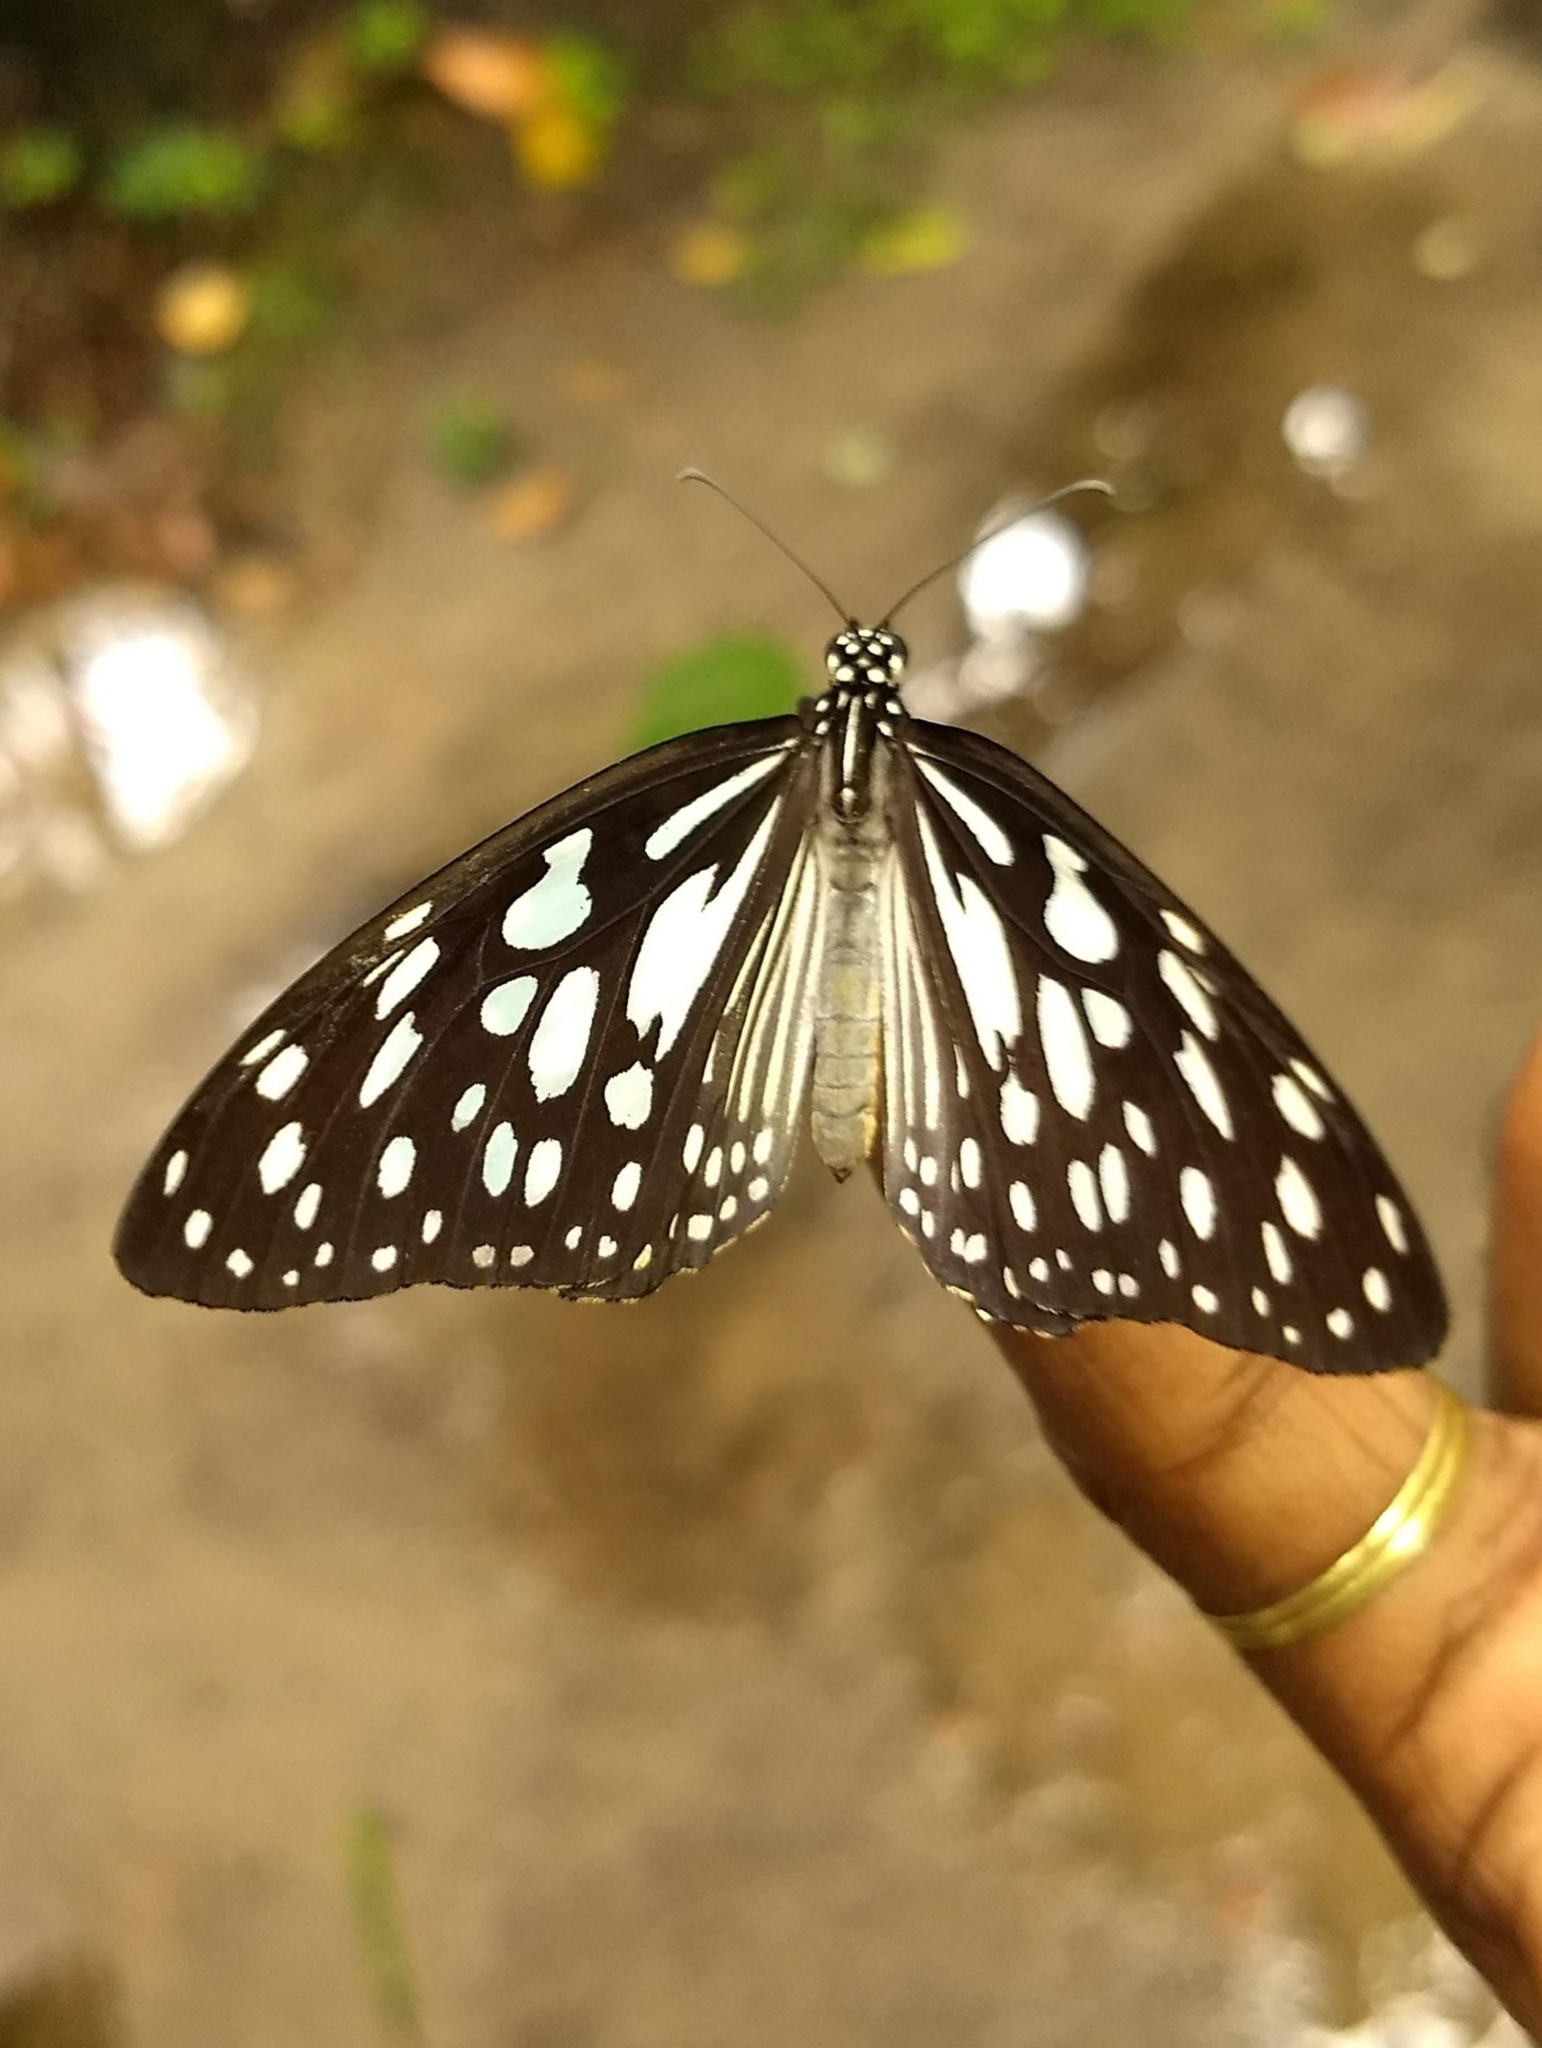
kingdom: Animalia
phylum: Arthropoda
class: Insecta
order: Lepidoptera
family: Nymphalidae
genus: Tirumala
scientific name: Tirumala limniace
